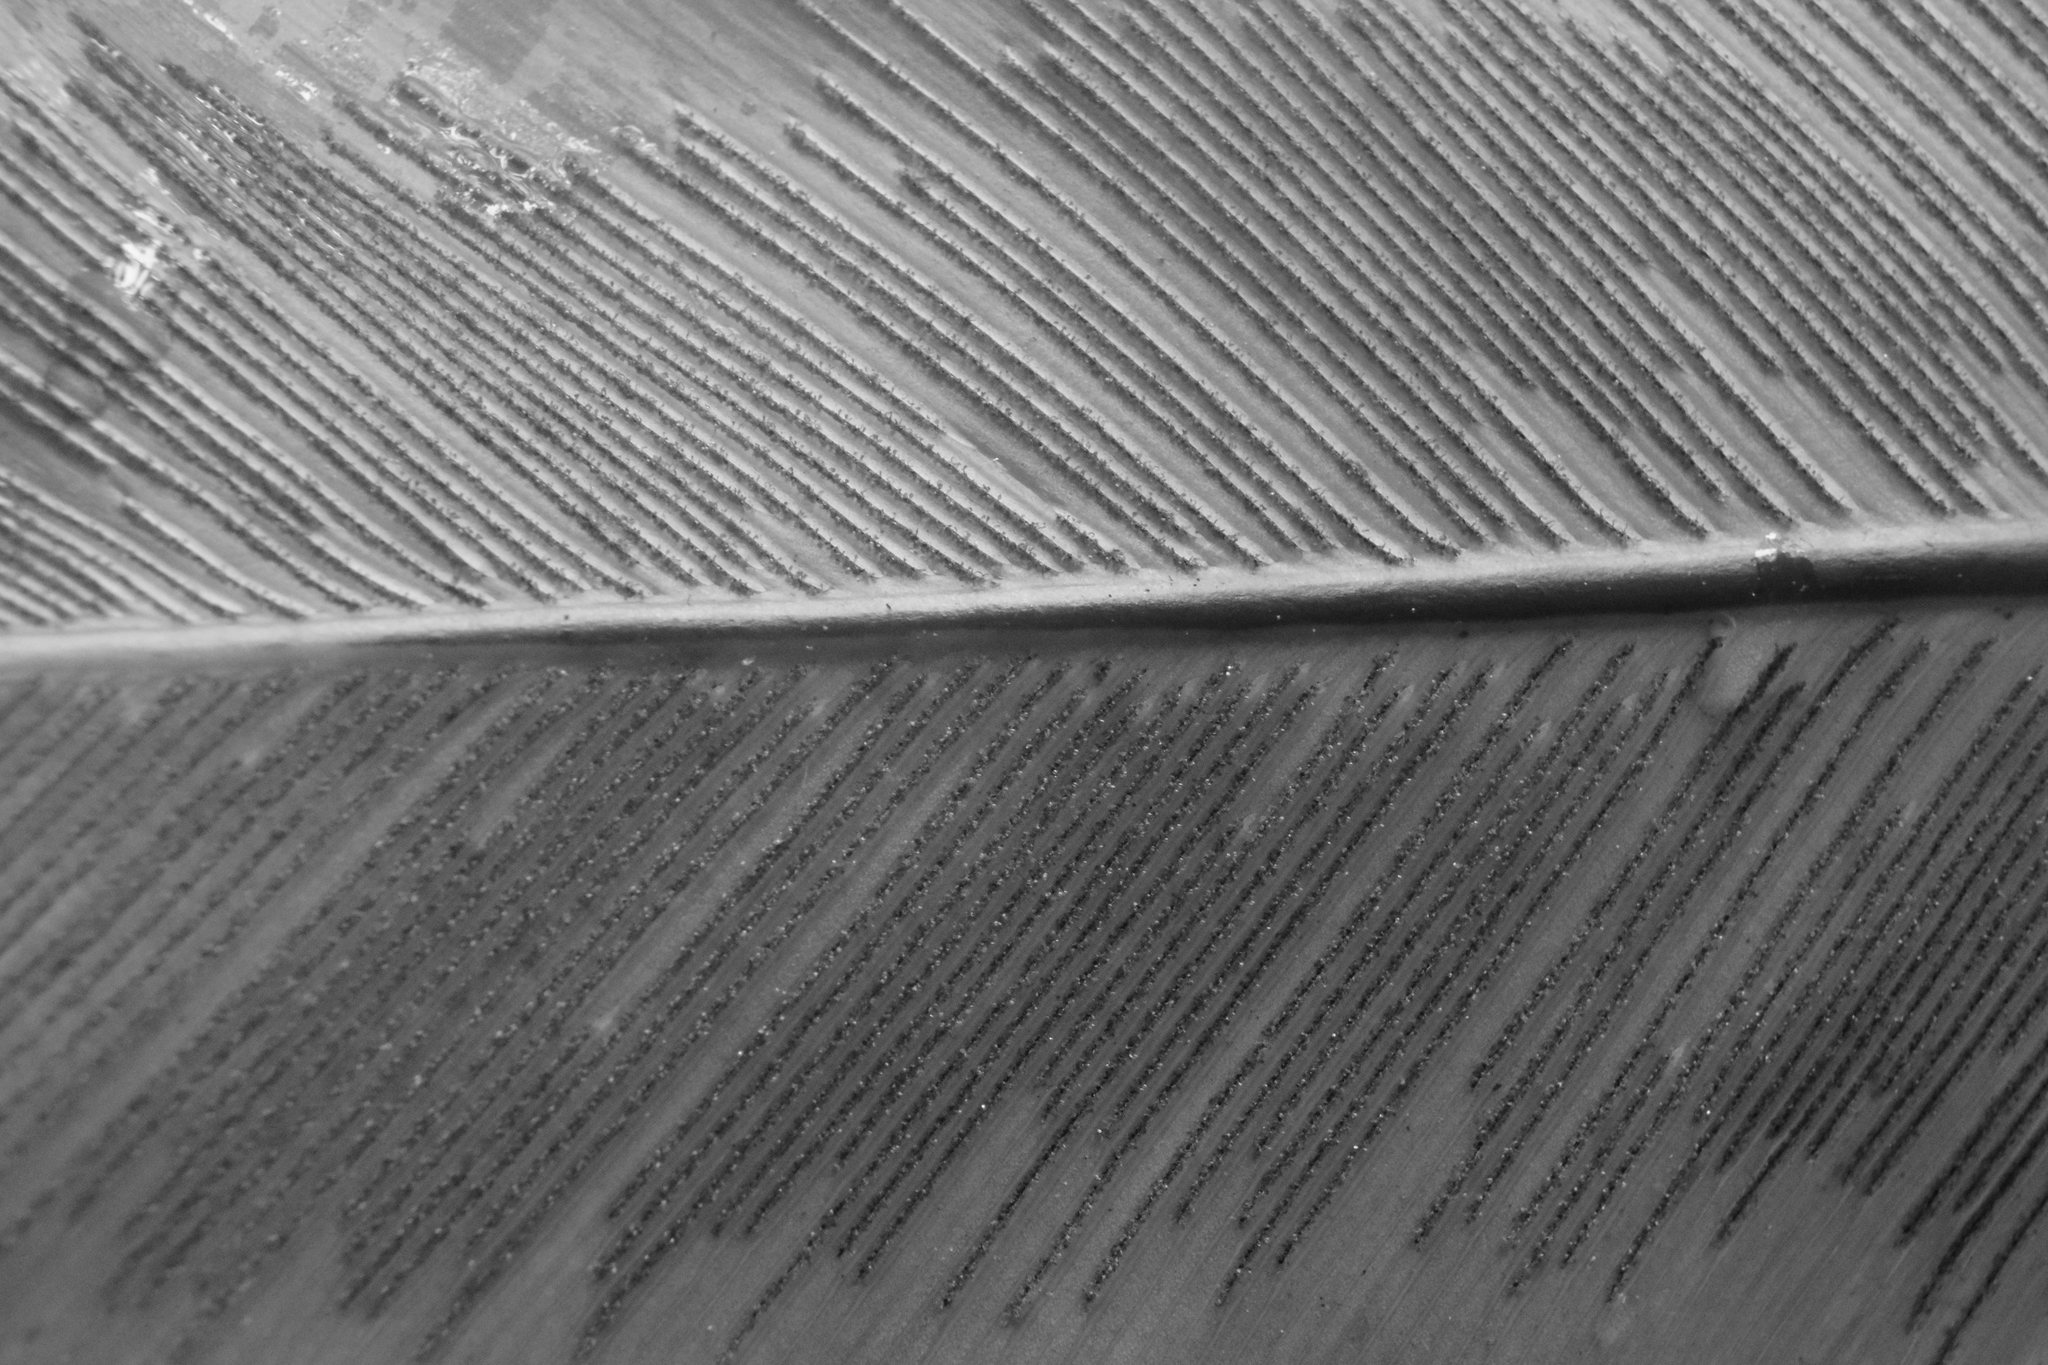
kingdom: Plantae
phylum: Tracheophyta
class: Polypodiopsida
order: Polypodiales
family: Aspleniaceae
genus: Asplenium
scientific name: Asplenium nidus
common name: Bird's-nest fern
